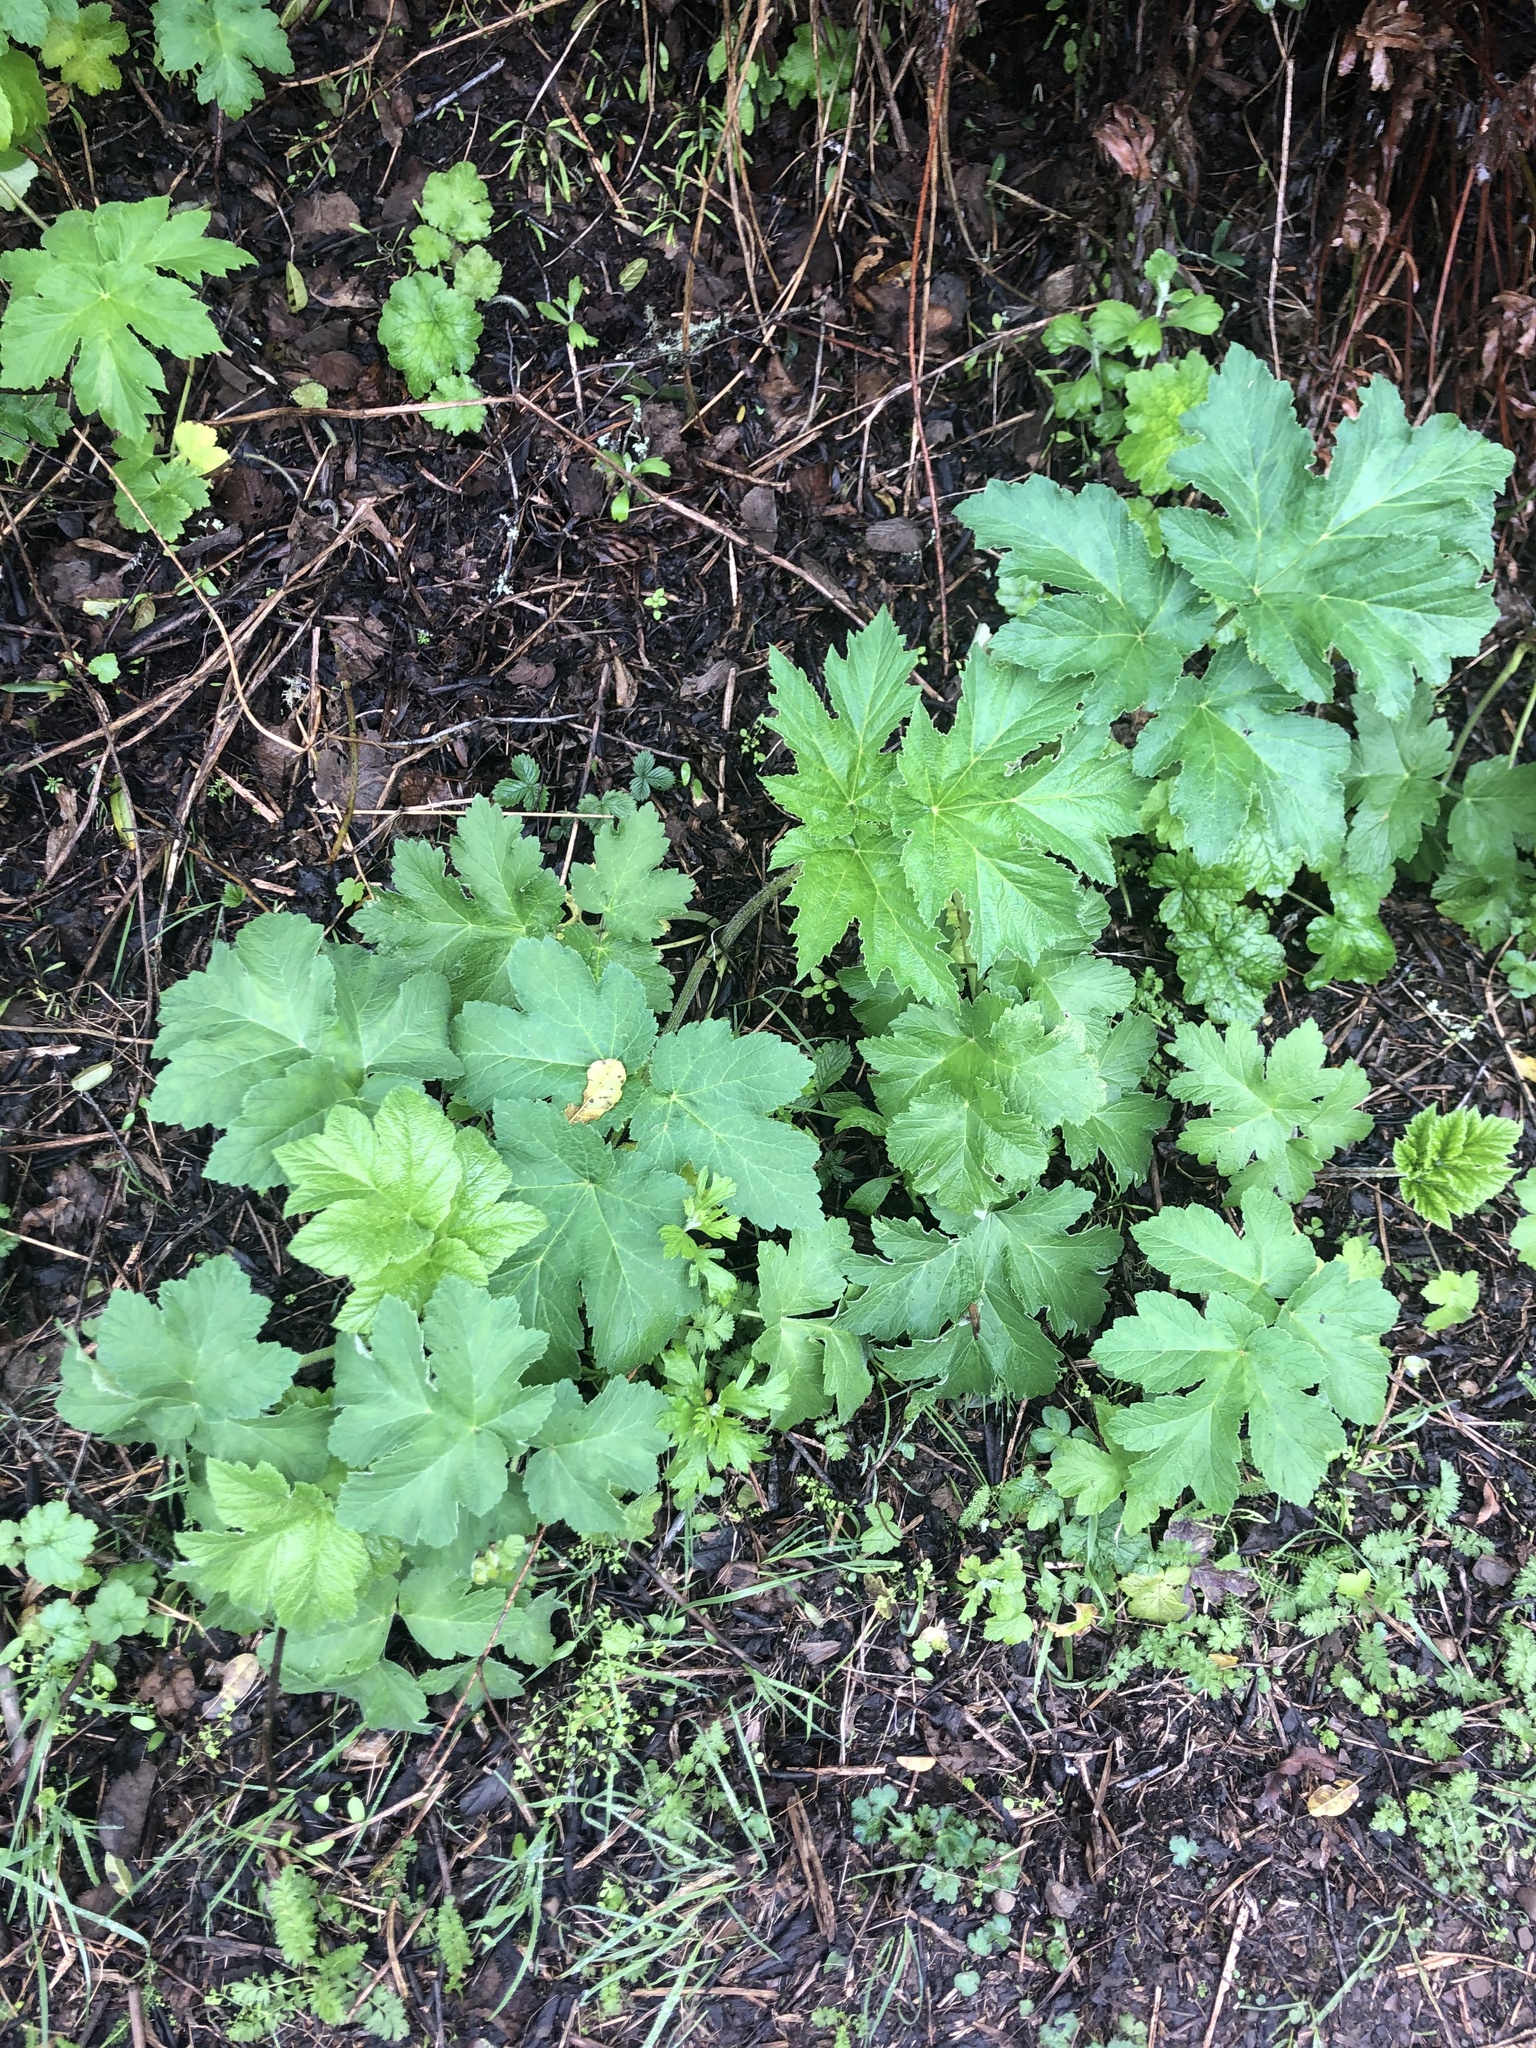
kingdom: Plantae
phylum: Tracheophyta
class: Magnoliopsida
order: Apiales
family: Apiaceae
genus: Heracleum
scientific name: Heracleum maximum
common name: American cow parsnip
